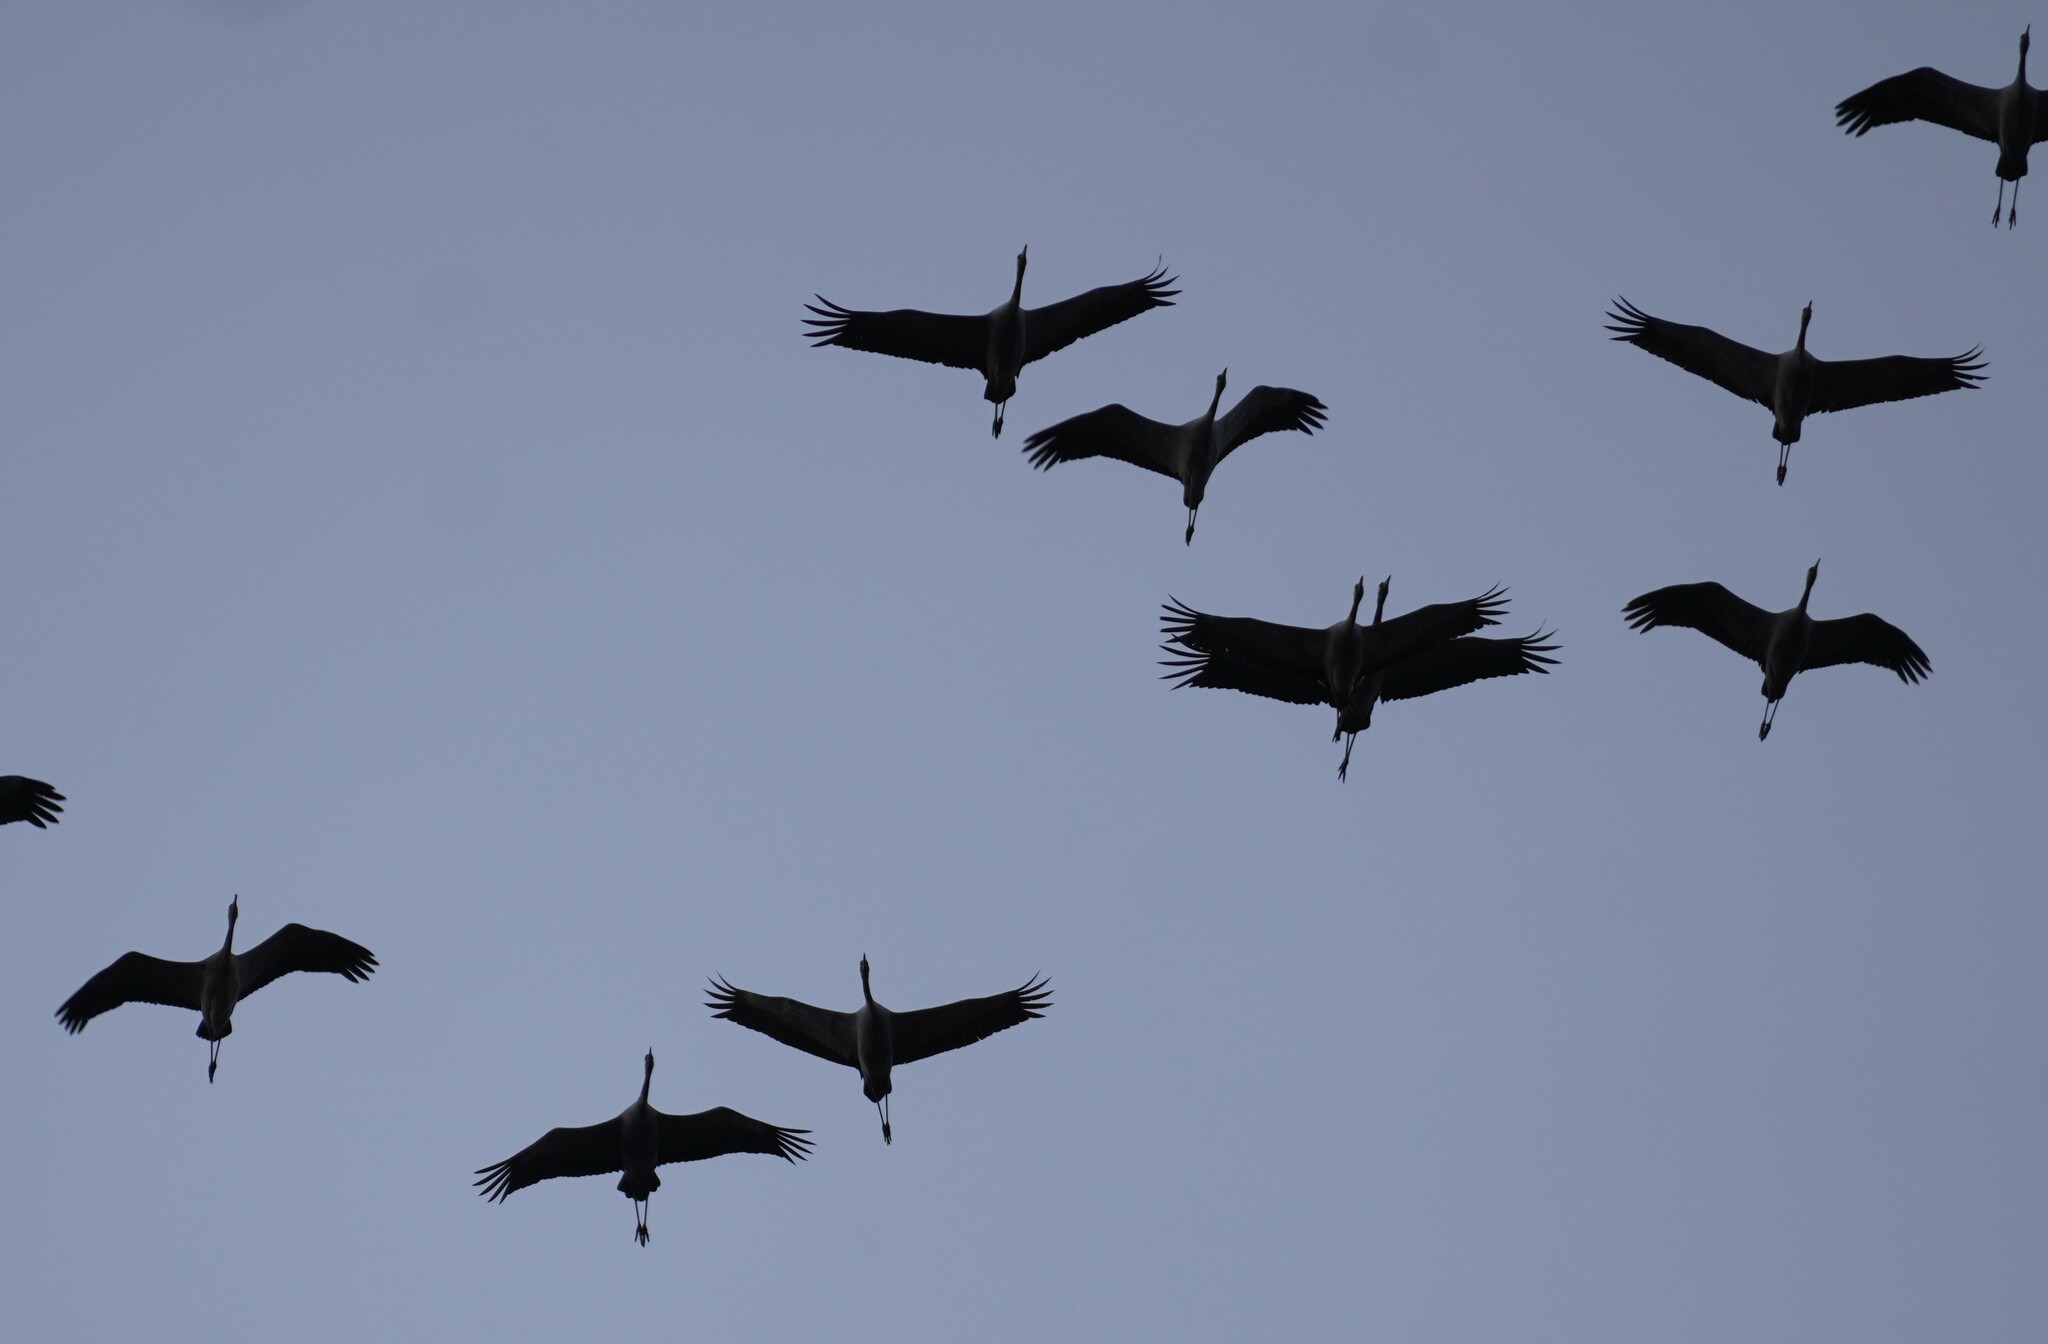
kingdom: Animalia
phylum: Chordata
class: Aves
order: Gruiformes
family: Gruidae
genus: Grus
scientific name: Grus grus
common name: Common crane
